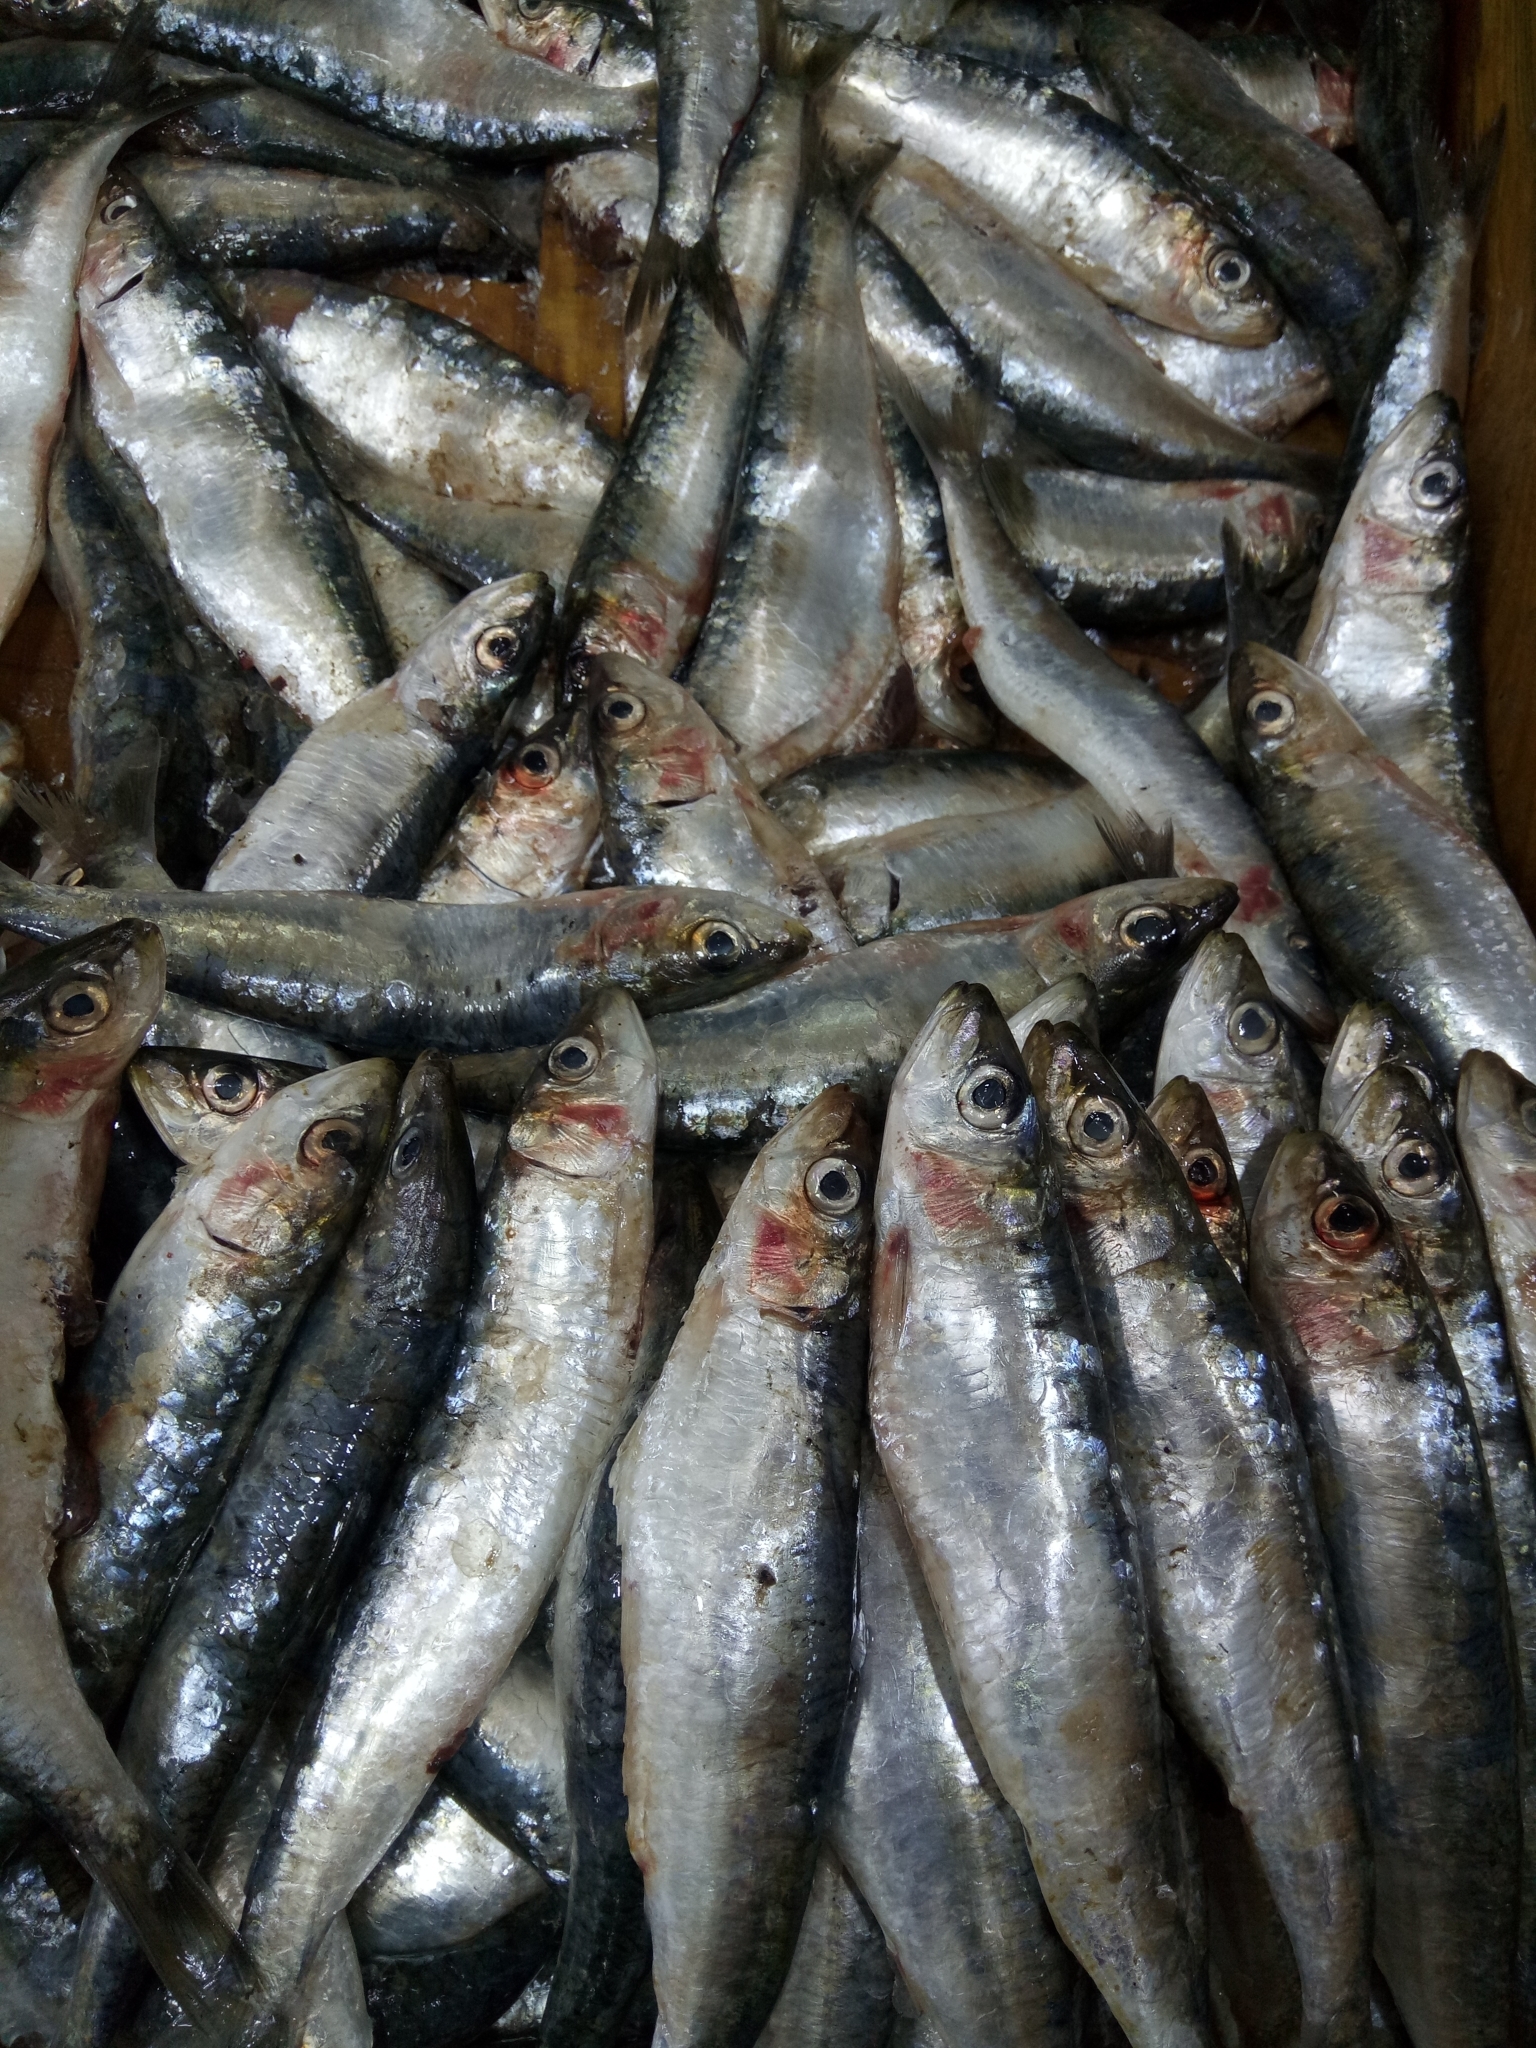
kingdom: Animalia
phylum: Chordata
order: Clupeiformes
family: Clupeidae
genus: Sardina
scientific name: Sardina pilchardus
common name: Pilchard
